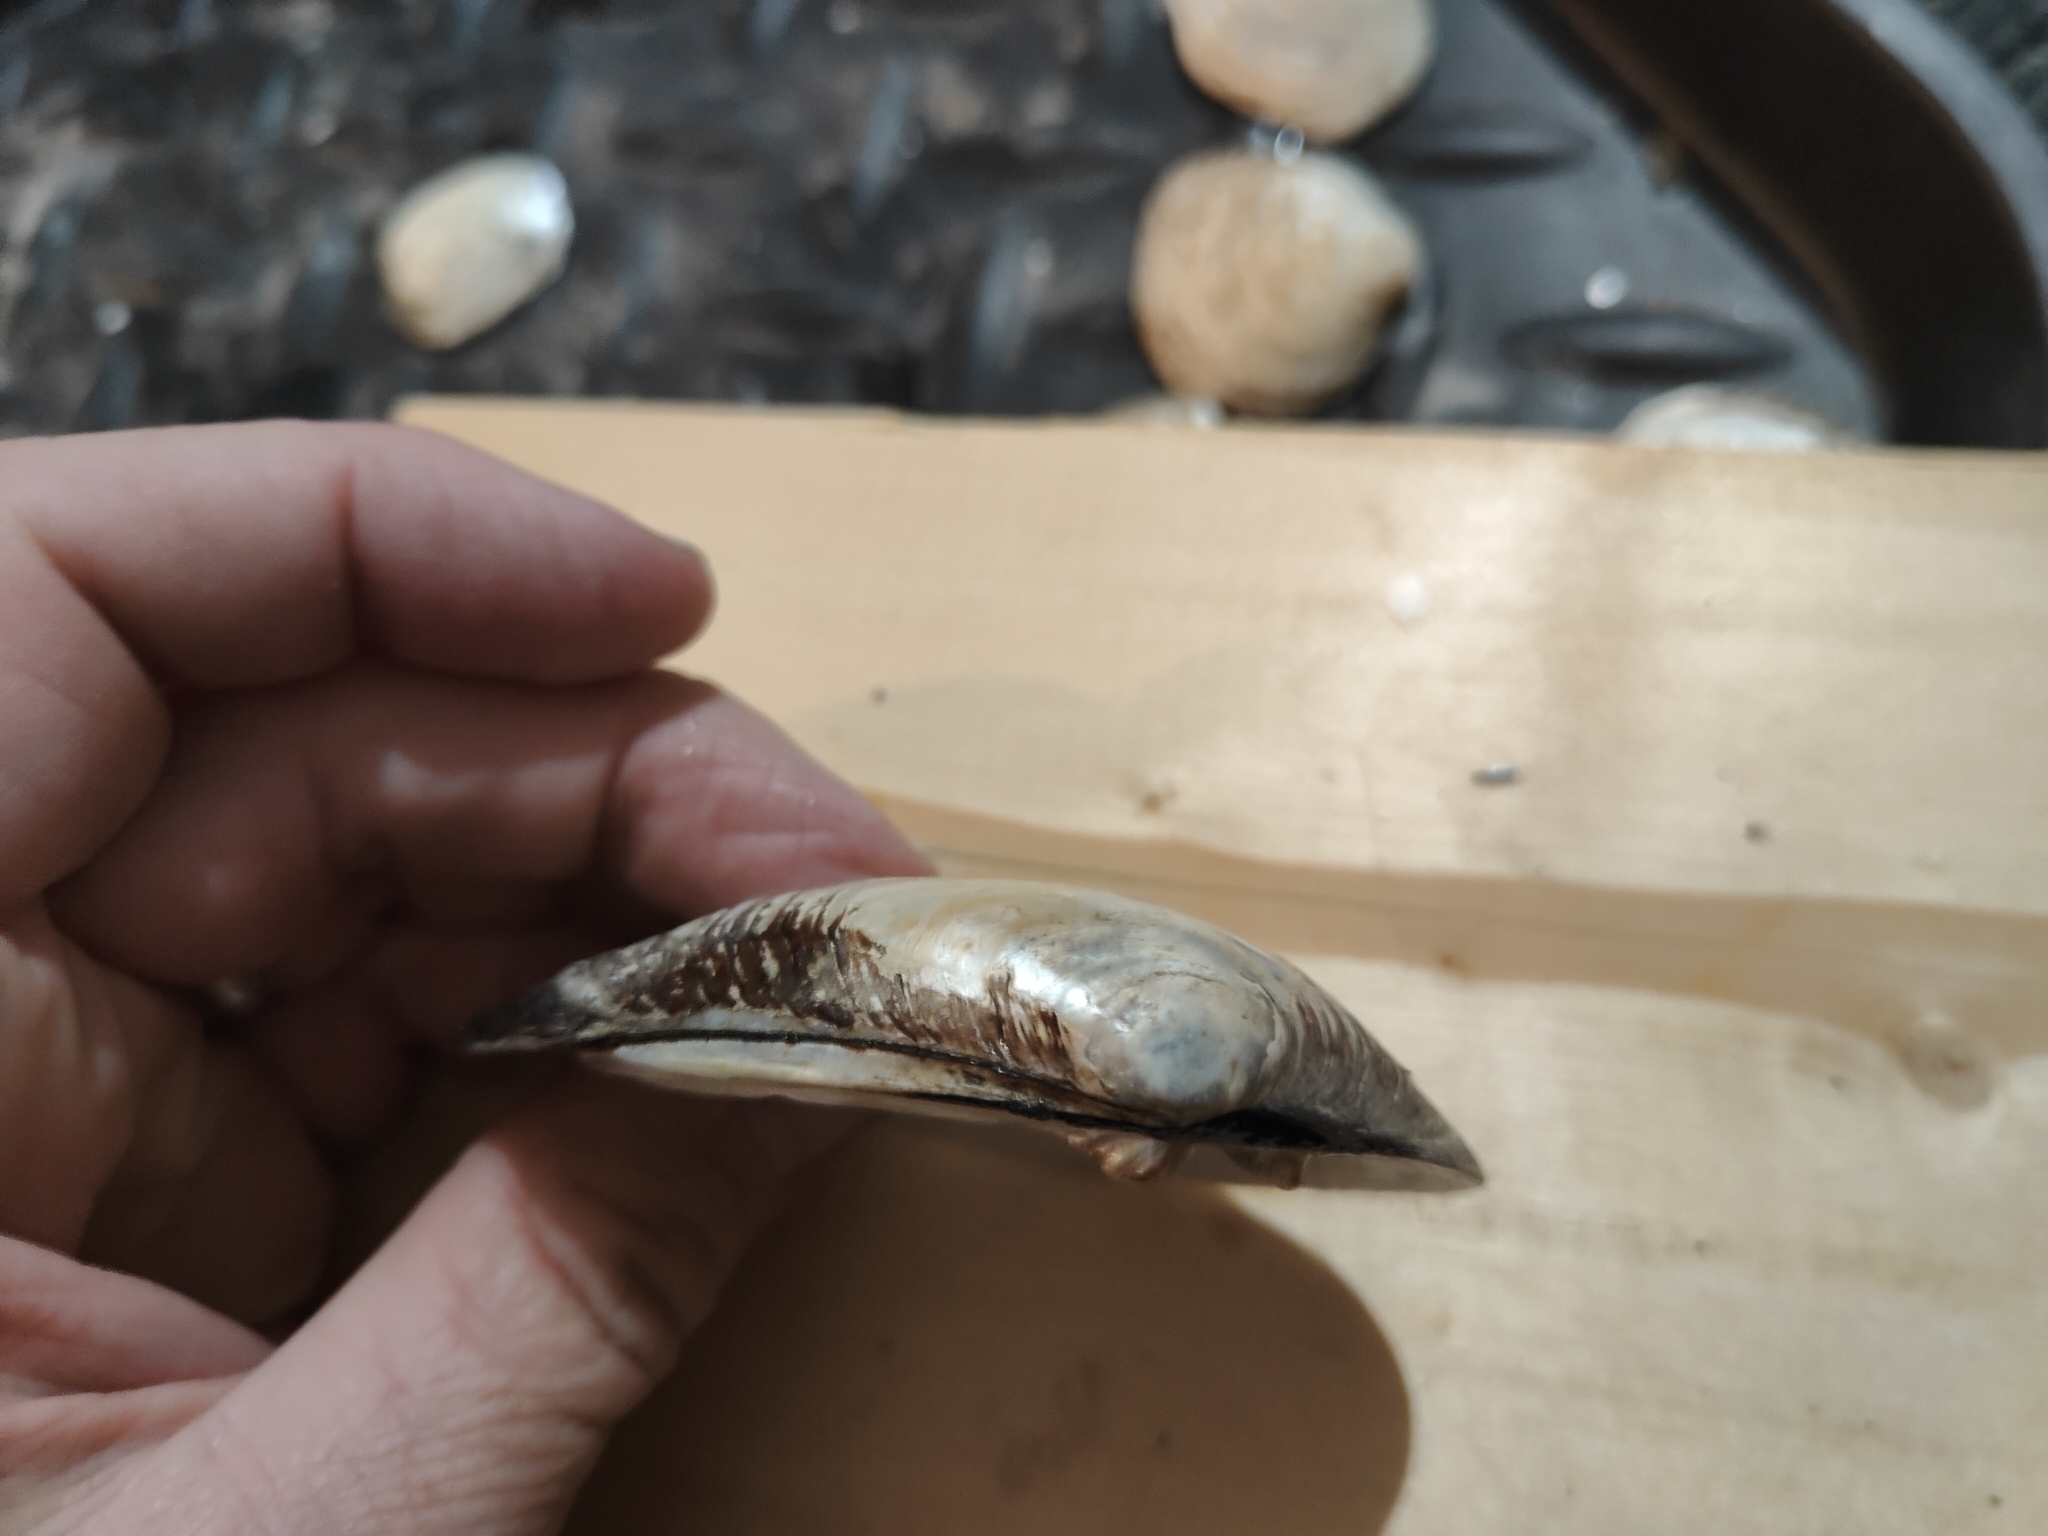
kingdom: Animalia
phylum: Mollusca
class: Bivalvia
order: Unionida
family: Unionidae
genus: Fusconaia
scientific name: Fusconaia flava
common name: Wabash pigtoe
